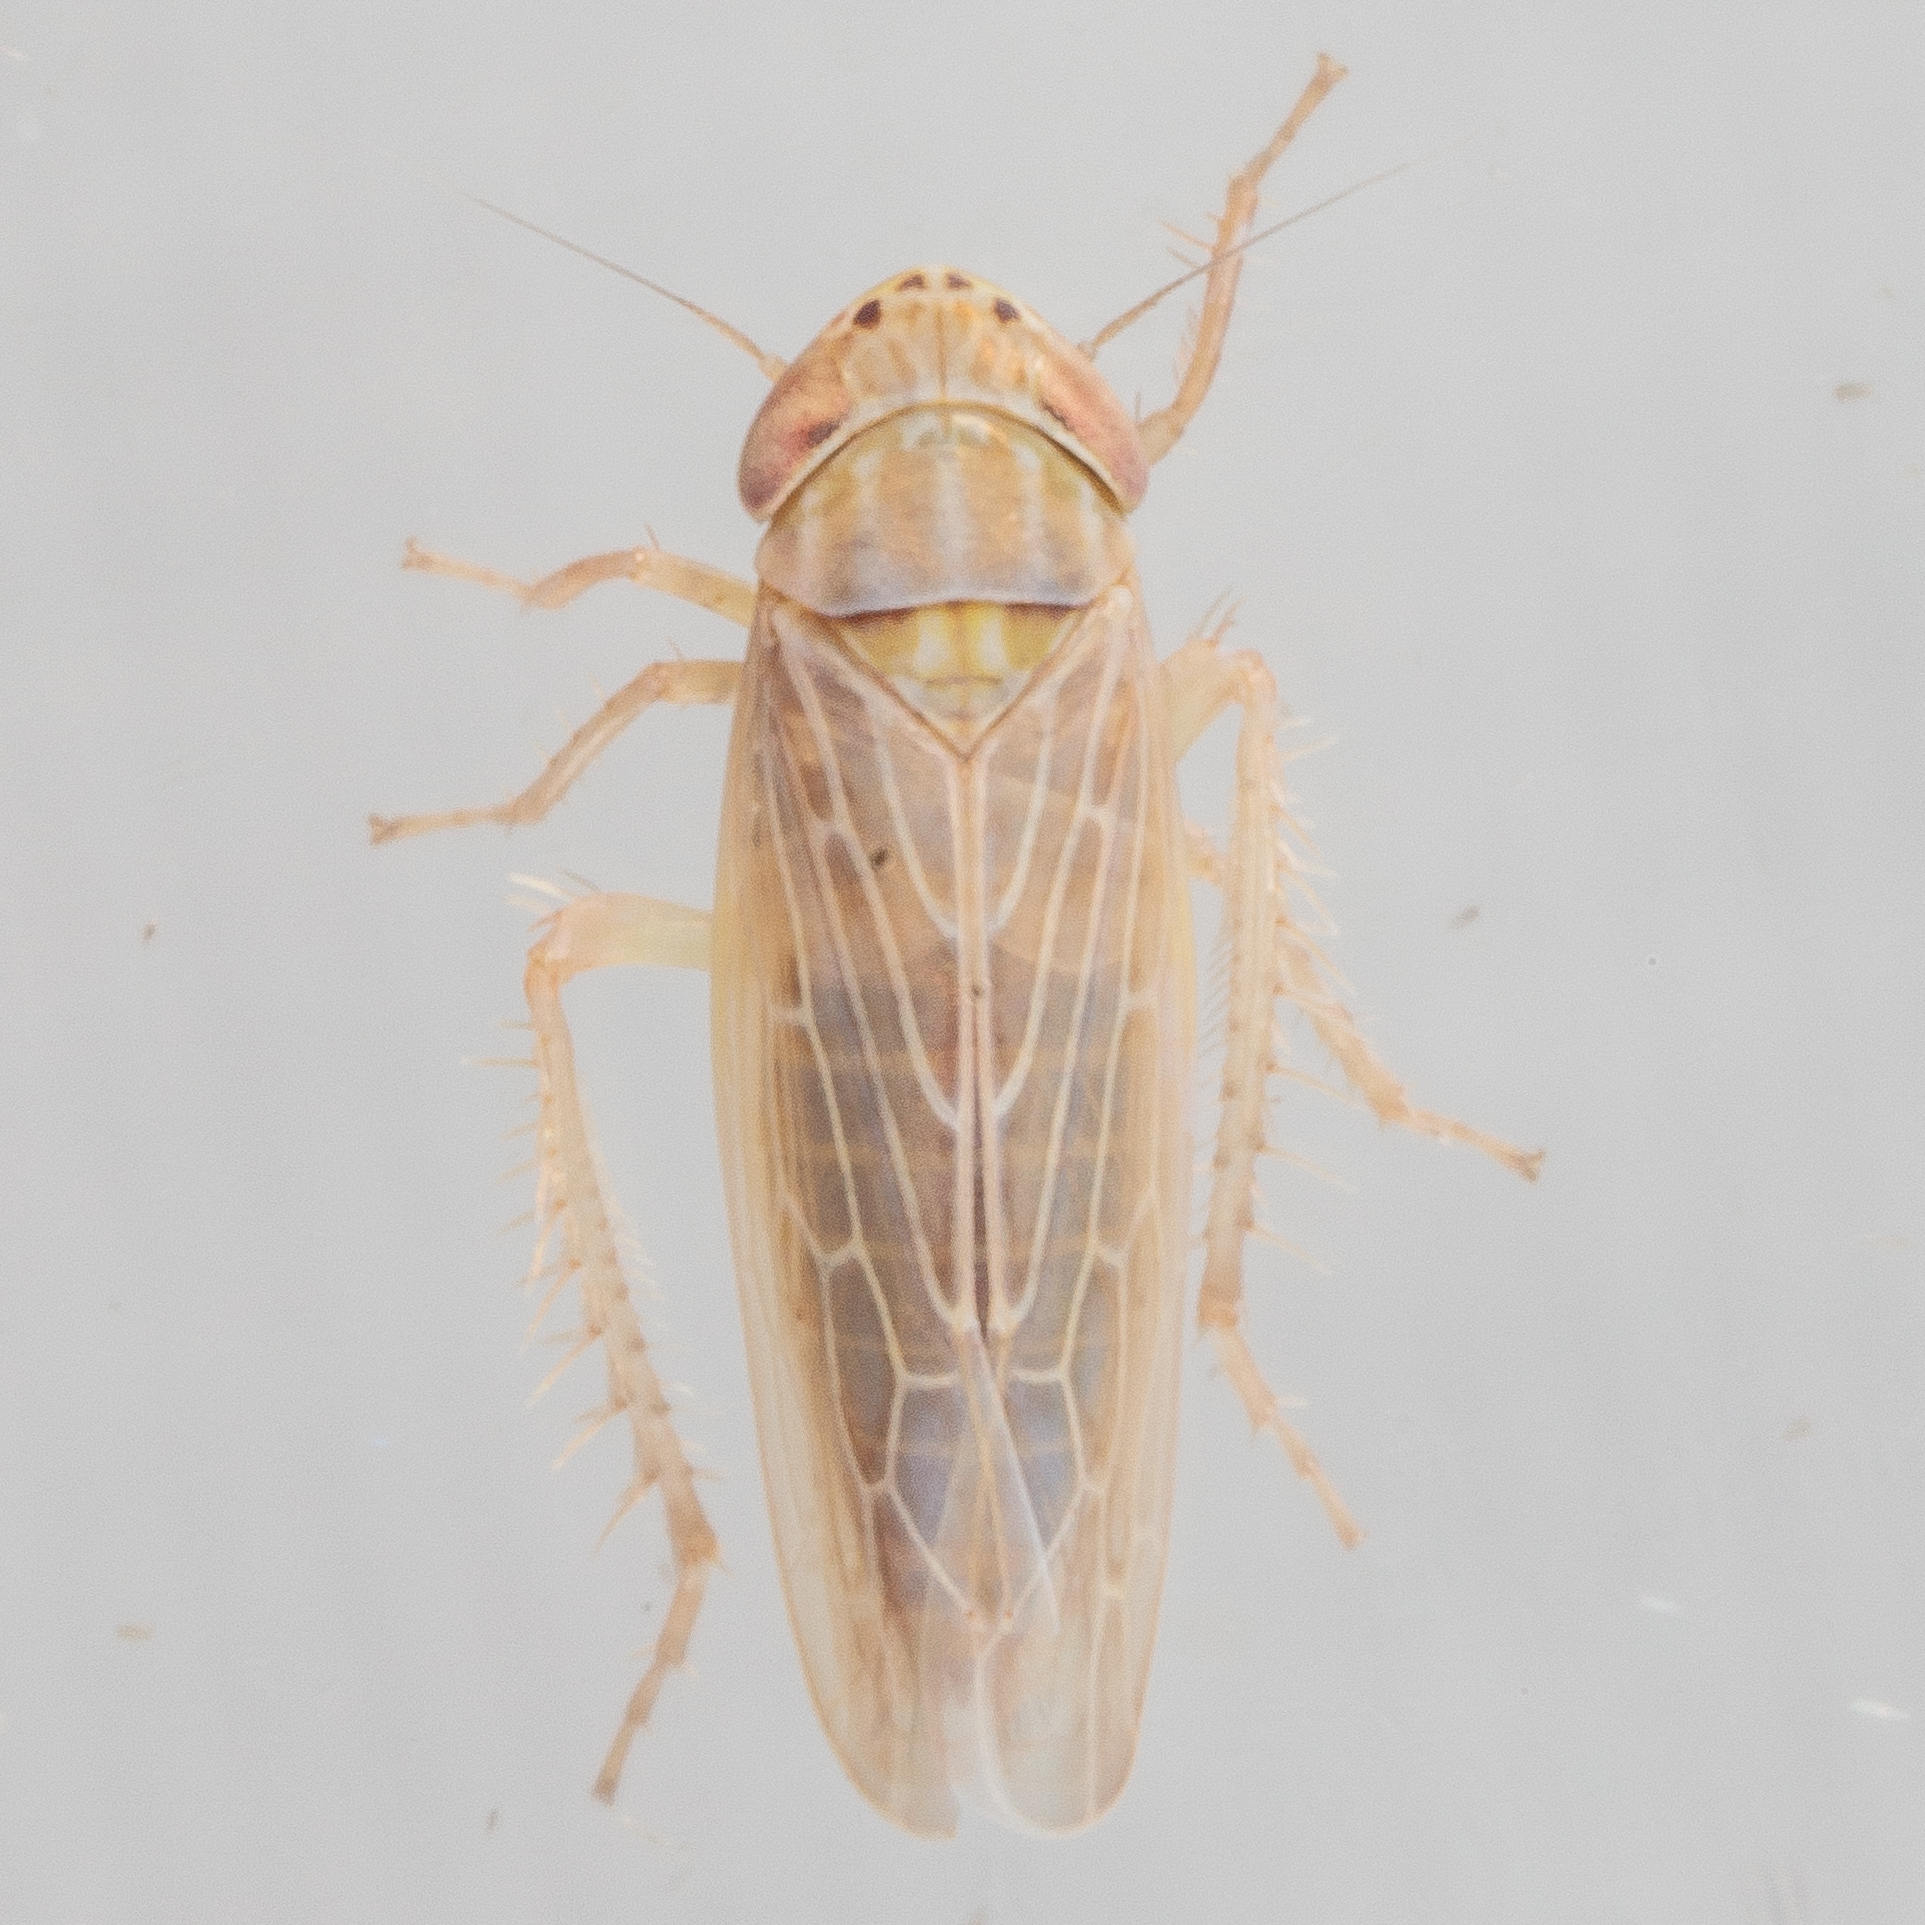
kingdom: Animalia
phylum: Arthropoda
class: Insecta
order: Hemiptera
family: Cicadellidae
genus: Graminella
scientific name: Graminella sonora
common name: Lesser lawn leafhopper
